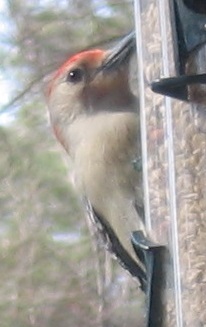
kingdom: Animalia
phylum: Chordata
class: Aves
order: Piciformes
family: Picidae
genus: Melanerpes
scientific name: Melanerpes carolinus
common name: Red-bellied woodpecker
